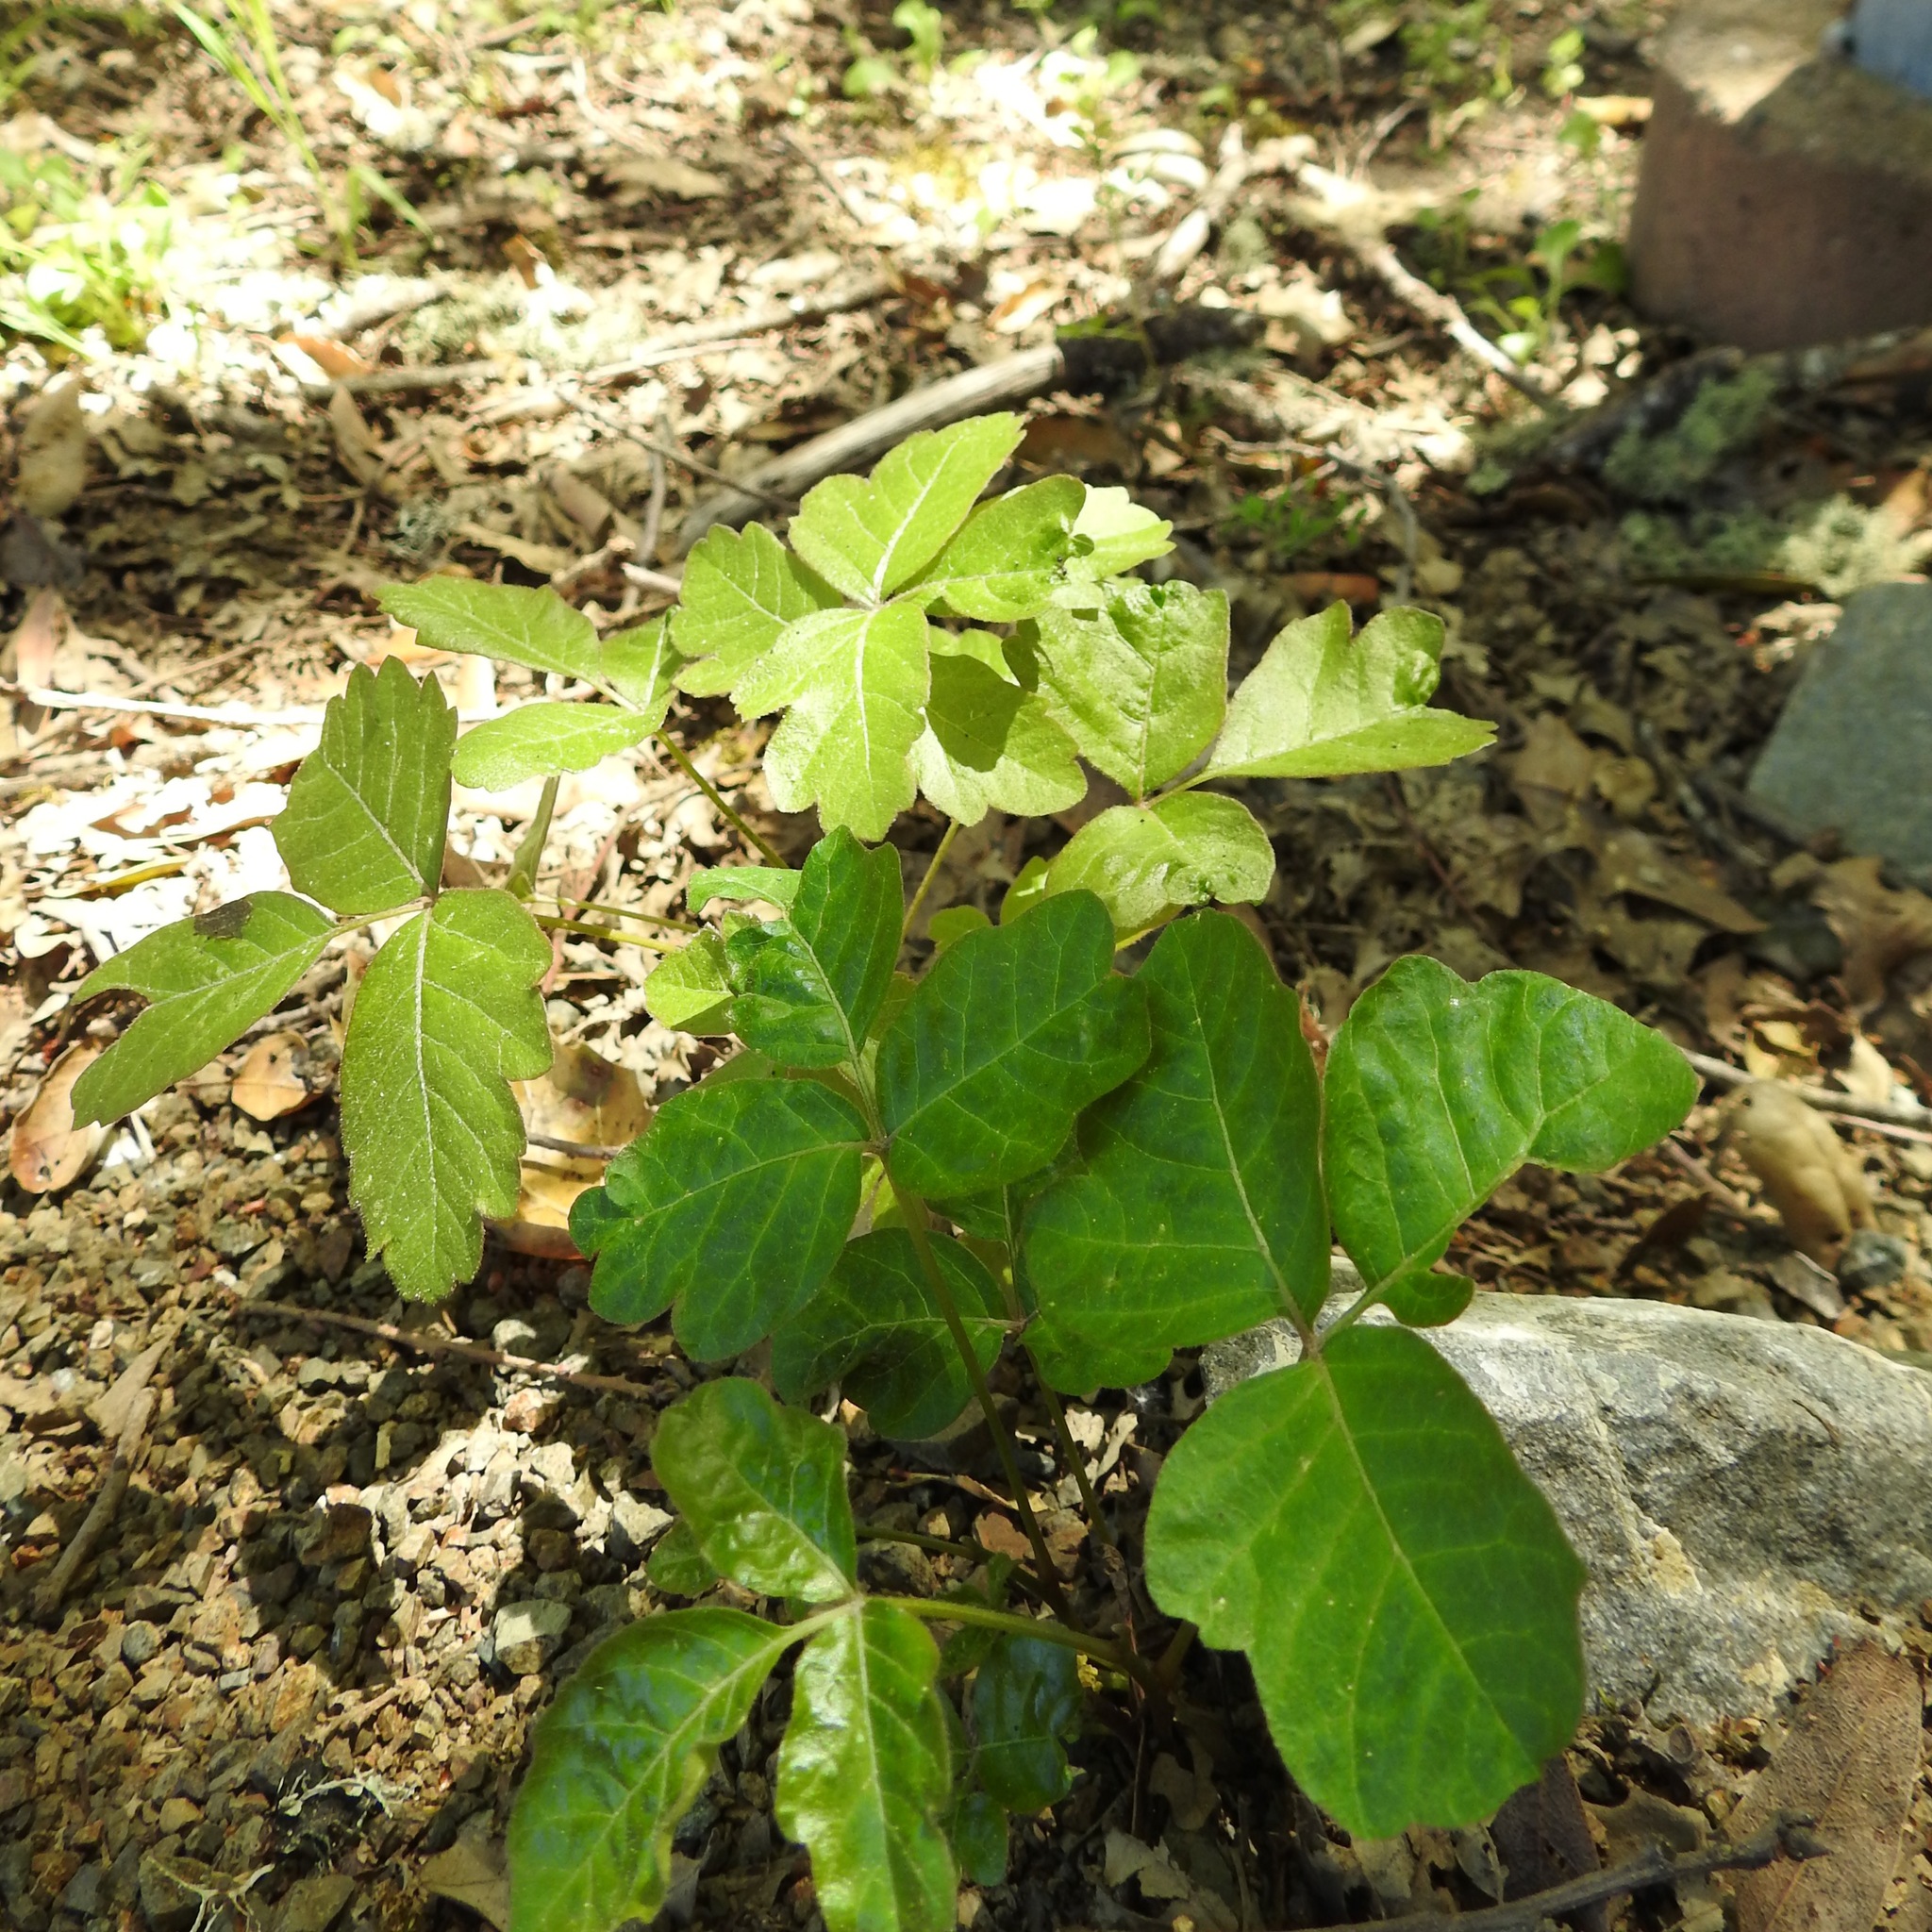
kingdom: Plantae
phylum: Tracheophyta
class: Magnoliopsida
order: Sapindales
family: Anacardiaceae
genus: Toxicodendron
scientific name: Toxicodendron diversilobum
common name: Pacific poison-oak
